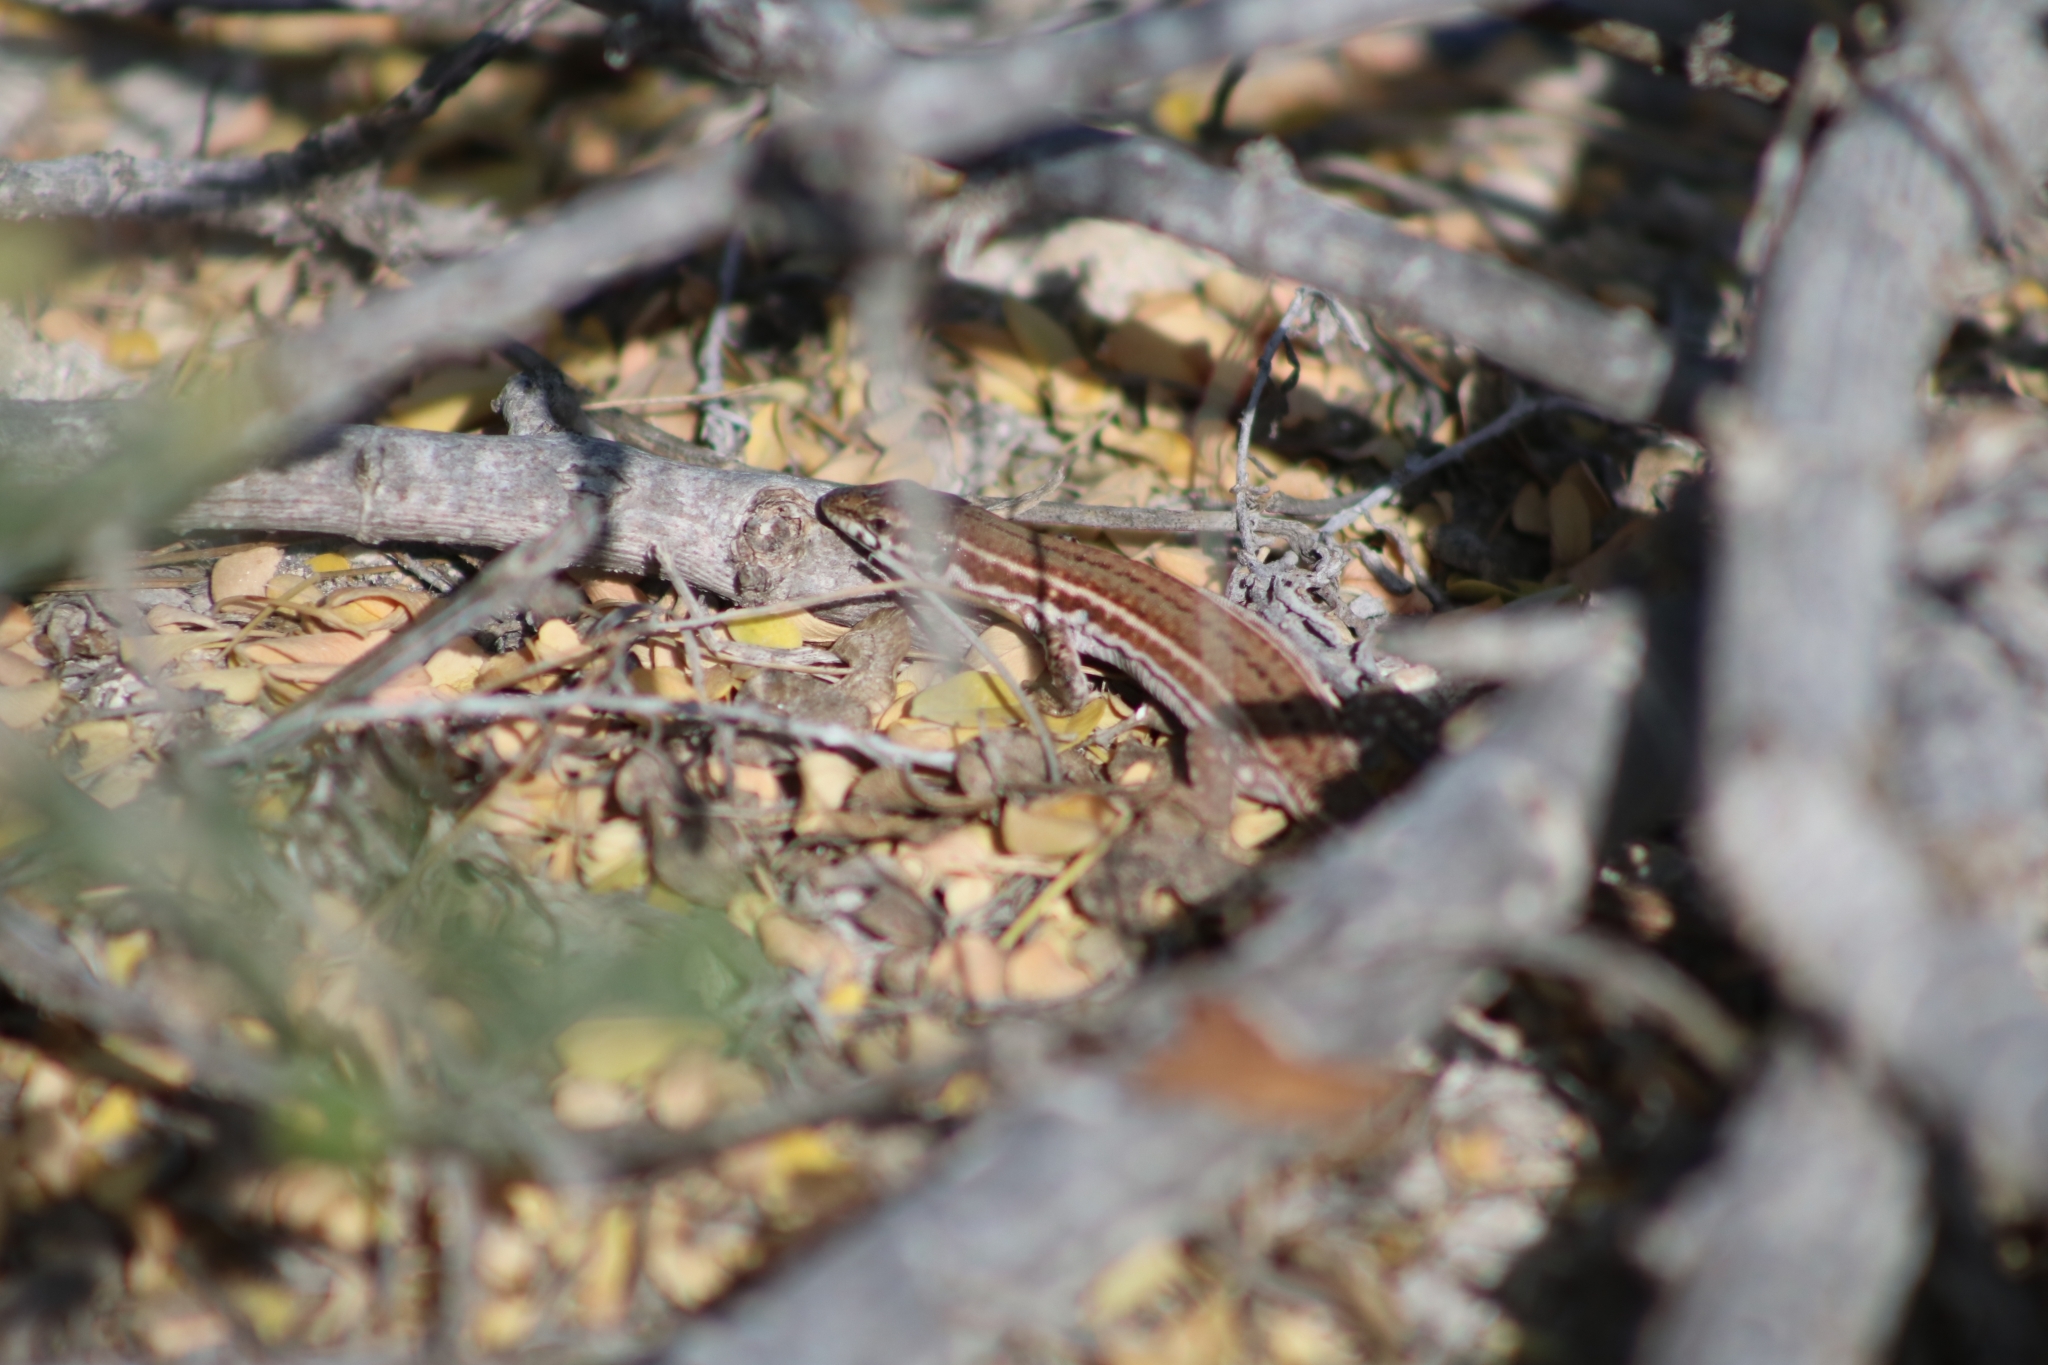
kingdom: Animalia
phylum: Chordata
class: Squamata
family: Lacertidae
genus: Podarcis
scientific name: Podarcis
